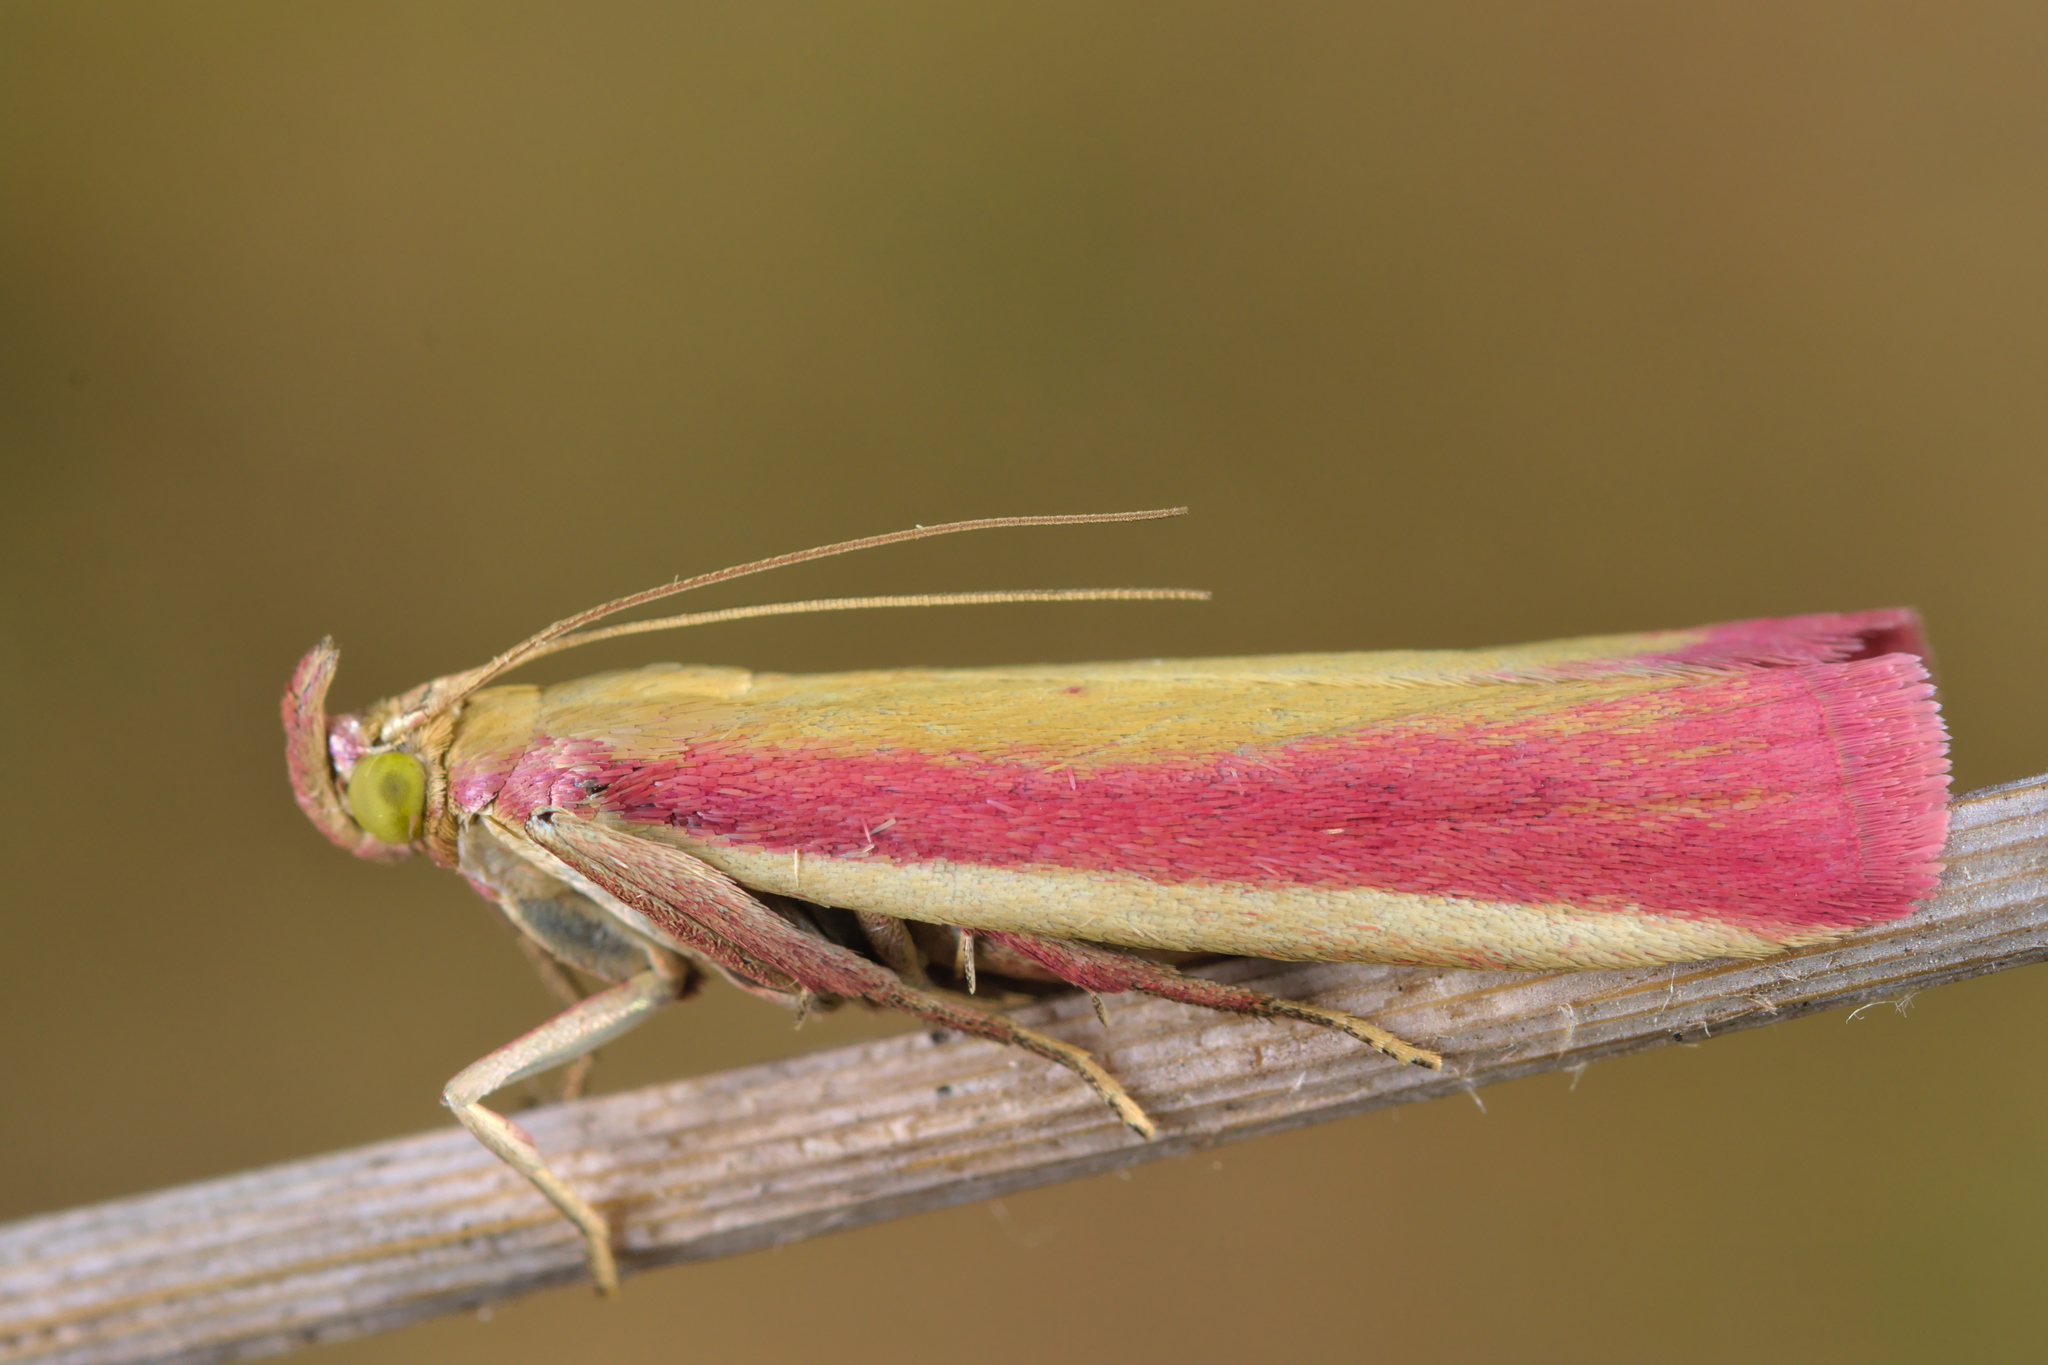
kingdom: Animalia
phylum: Arthropoda
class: Insecta
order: Lepidoptera
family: Pyralidae
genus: Oncocera
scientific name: Oncocera semirubella
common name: Rosy-striped knot-horn
